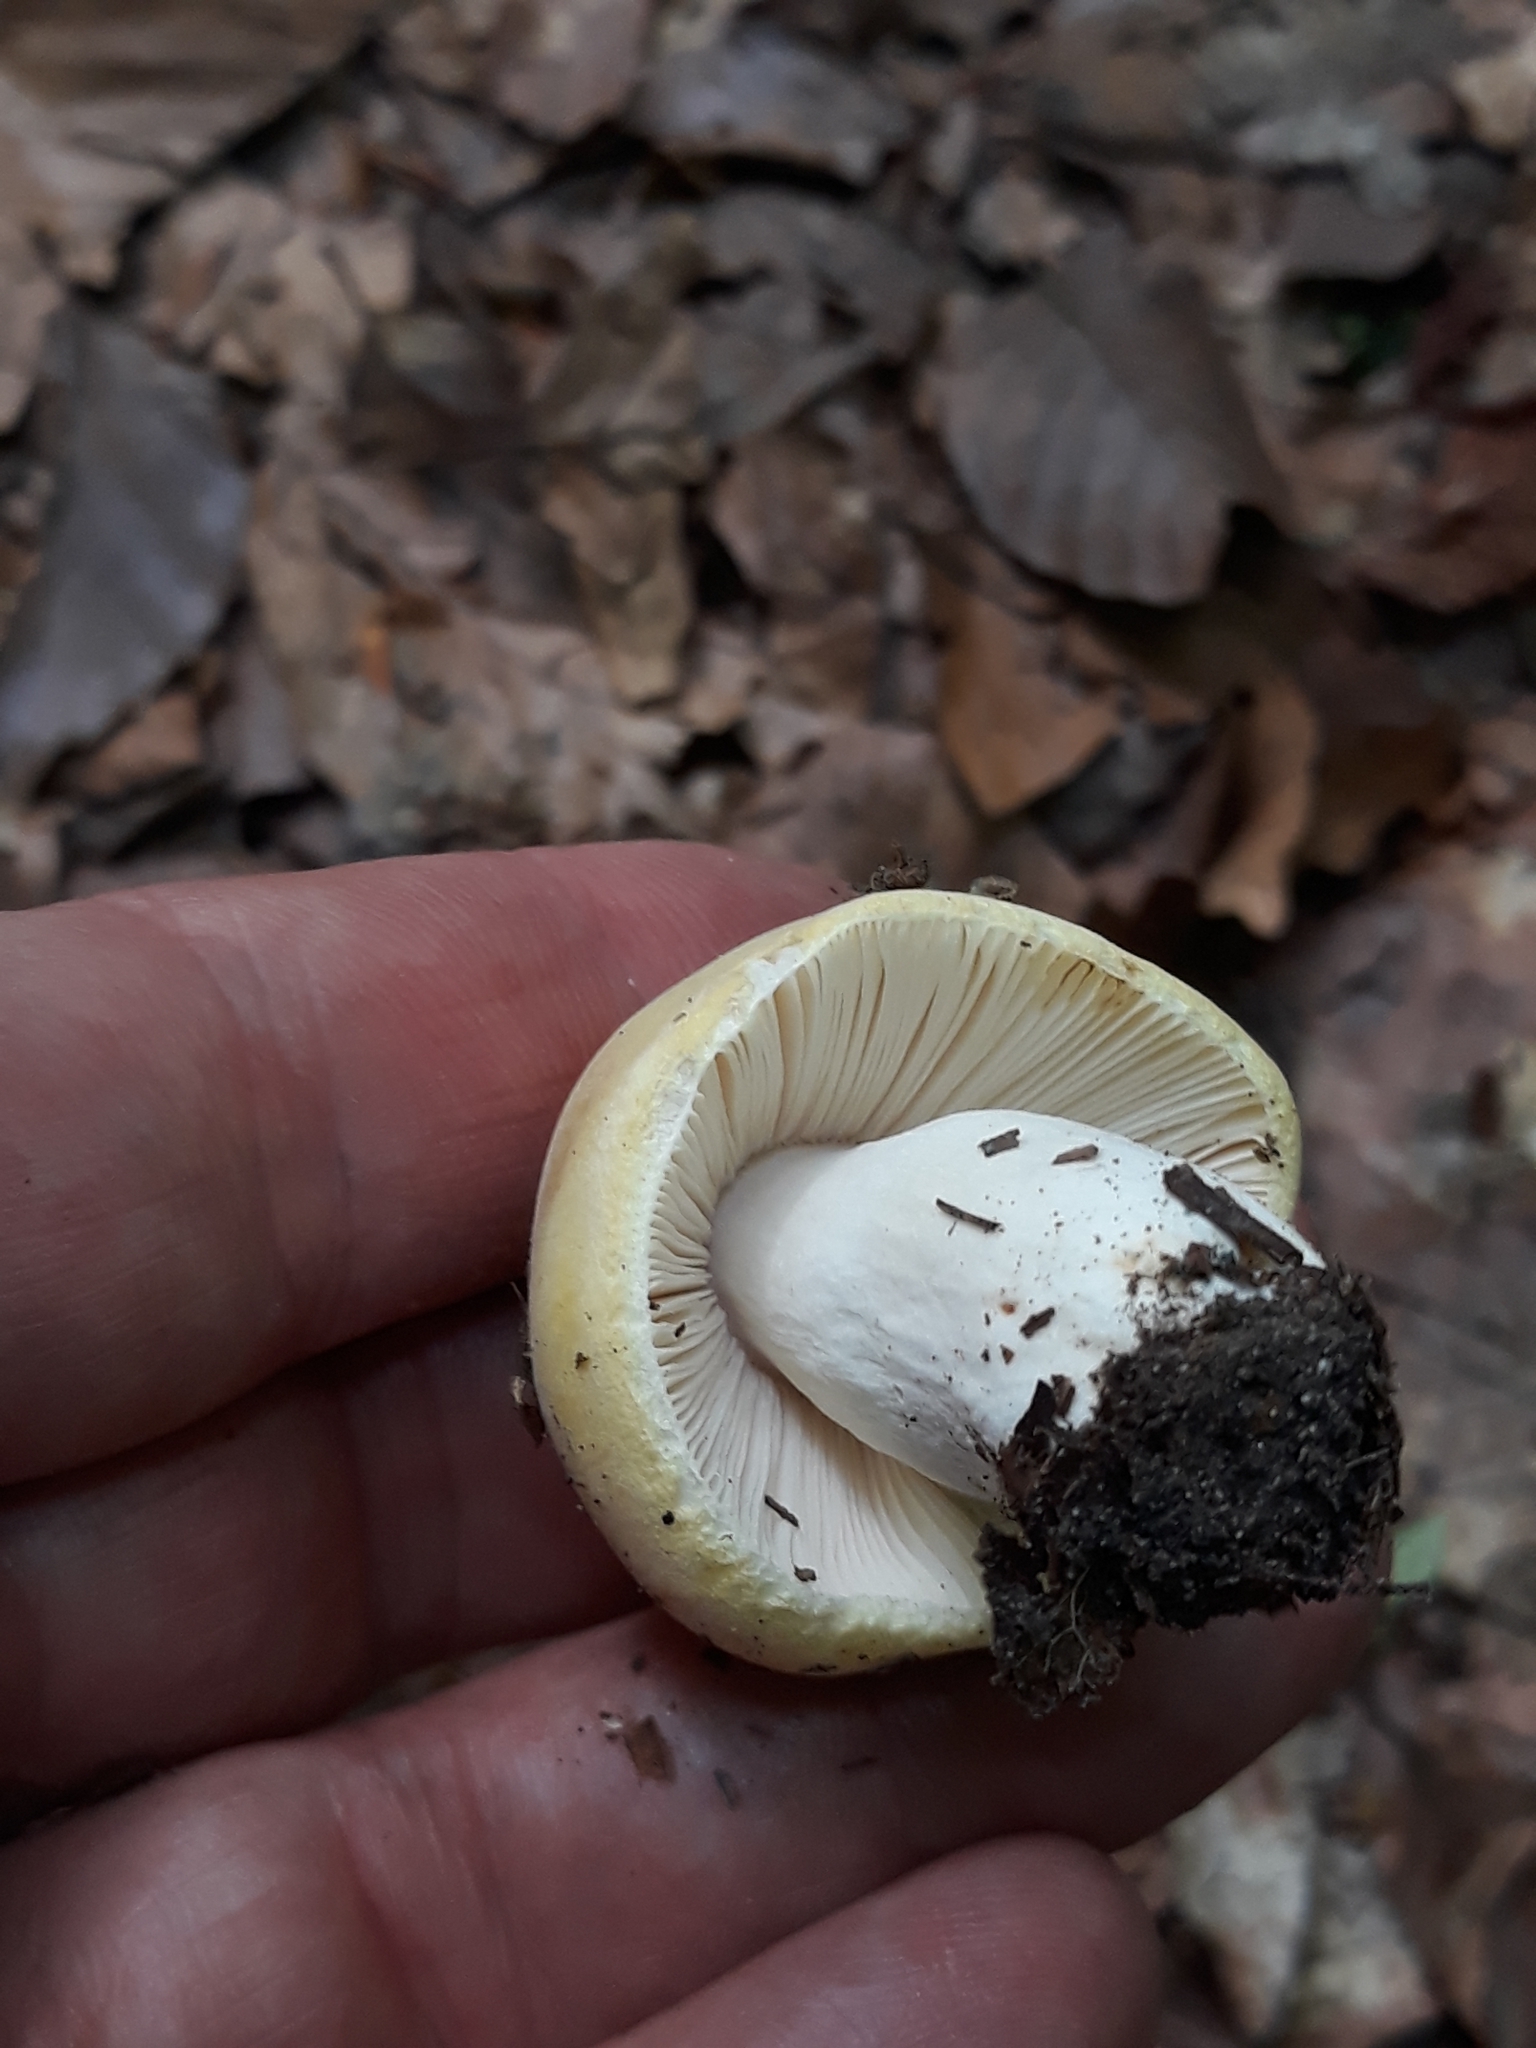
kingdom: Fungi
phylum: Basidiomycota
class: Agaricomycetes
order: Russulales
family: Russulaceae
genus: Russula
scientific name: Russula claroflava
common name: The yellow swamp brittlegill
